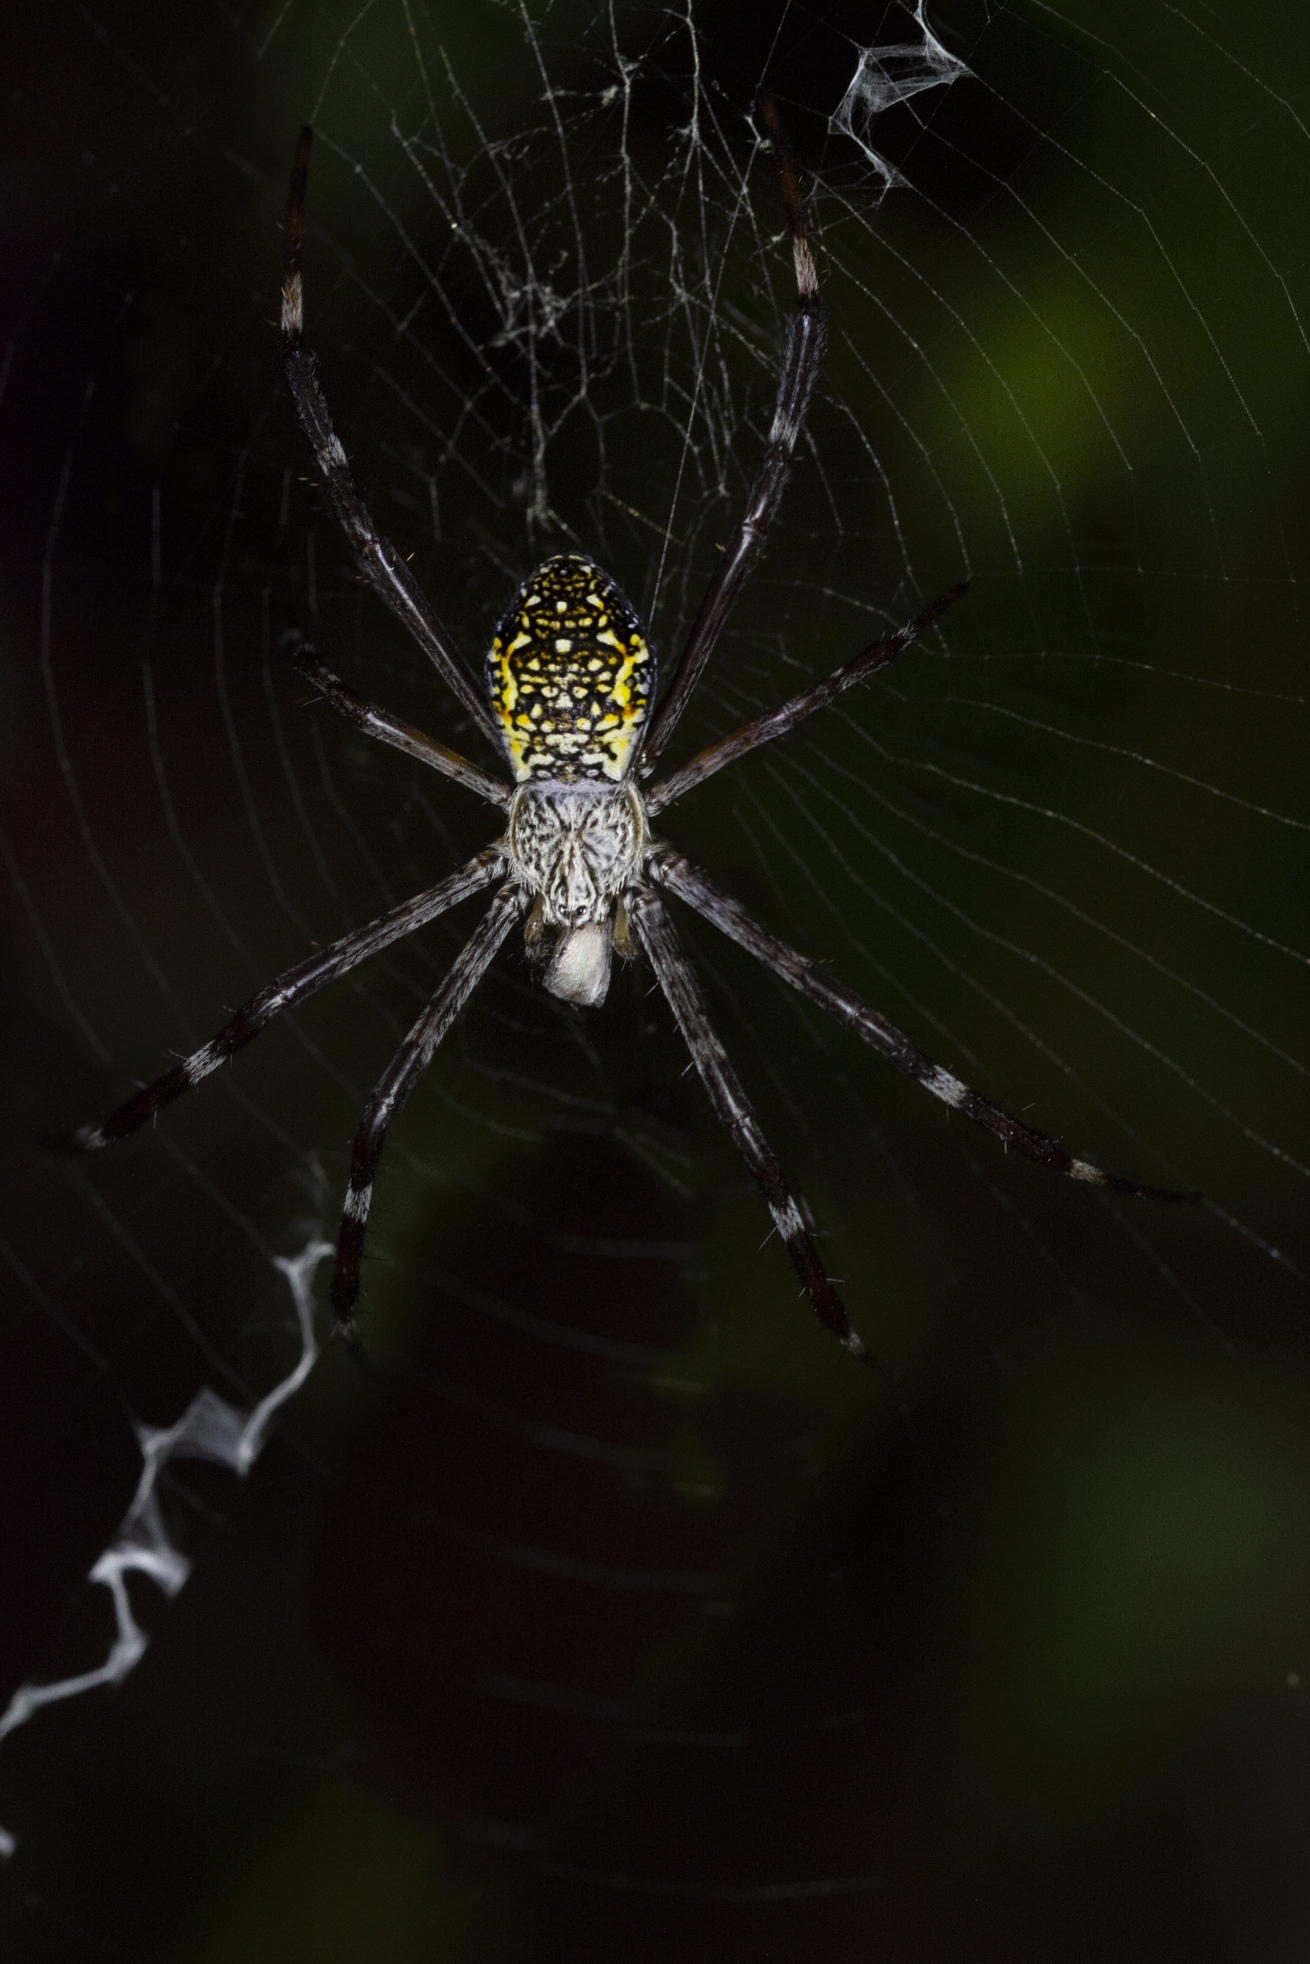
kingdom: Animalia
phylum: Arthropoda
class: Arachnida
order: Araneae
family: Araneidae
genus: Argiope
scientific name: Argiope appensa
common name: Garden spider
